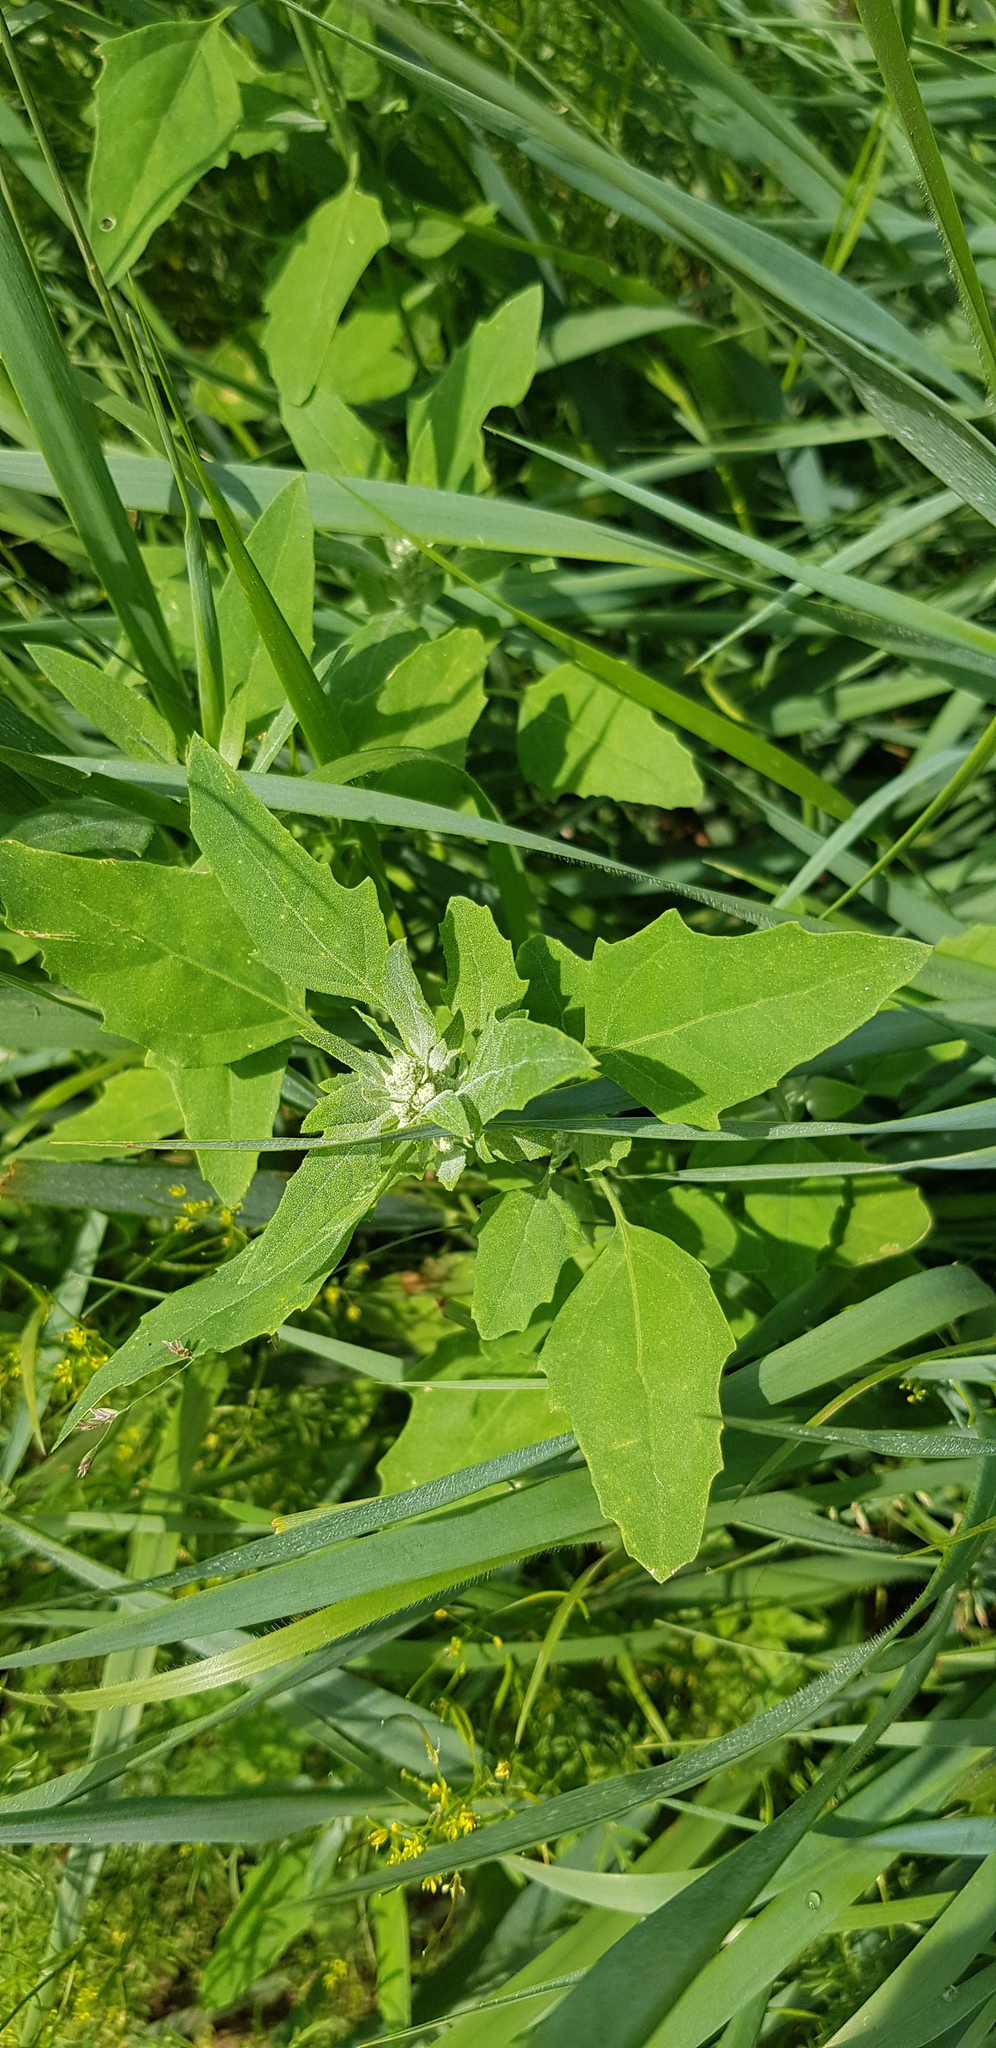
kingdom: Plantae
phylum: Tracheophyta
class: Magnoliopsida
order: Caryophyllales
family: Amaranthaceae
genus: Chenopodium
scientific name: Chenopodium karoi
